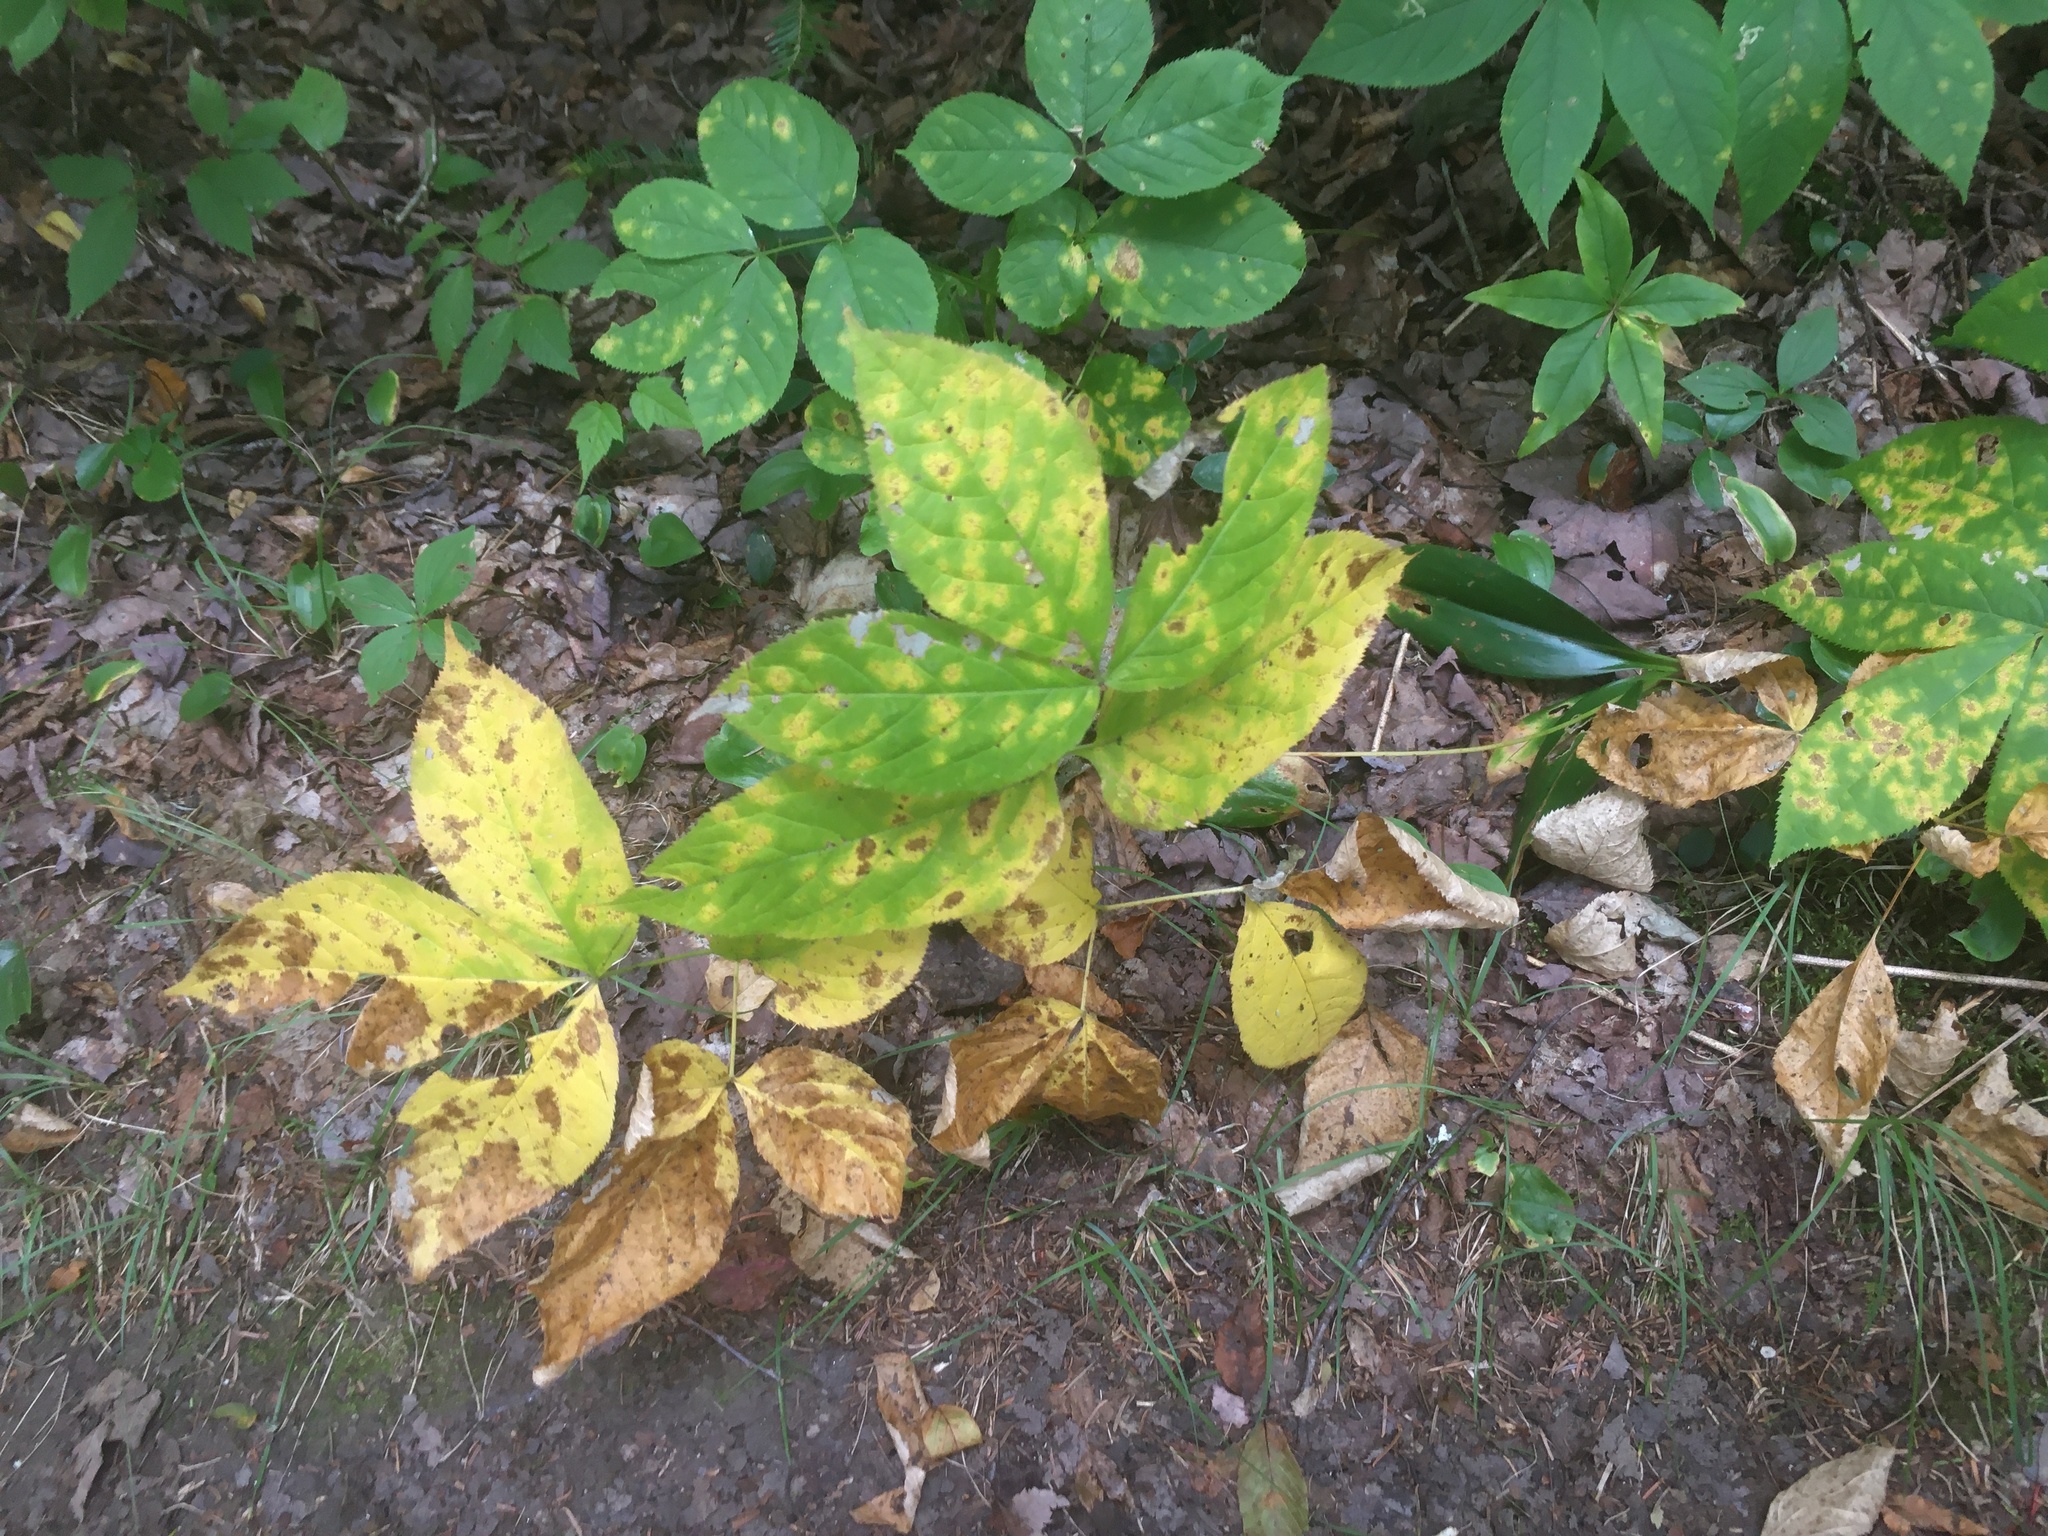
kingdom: Plantae
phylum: Tracheophyta
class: Magnoliopsida
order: Apiales
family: Araliaceae
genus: Aralia
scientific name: Aralia nudicaulis
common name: Wild sarsaparilla
